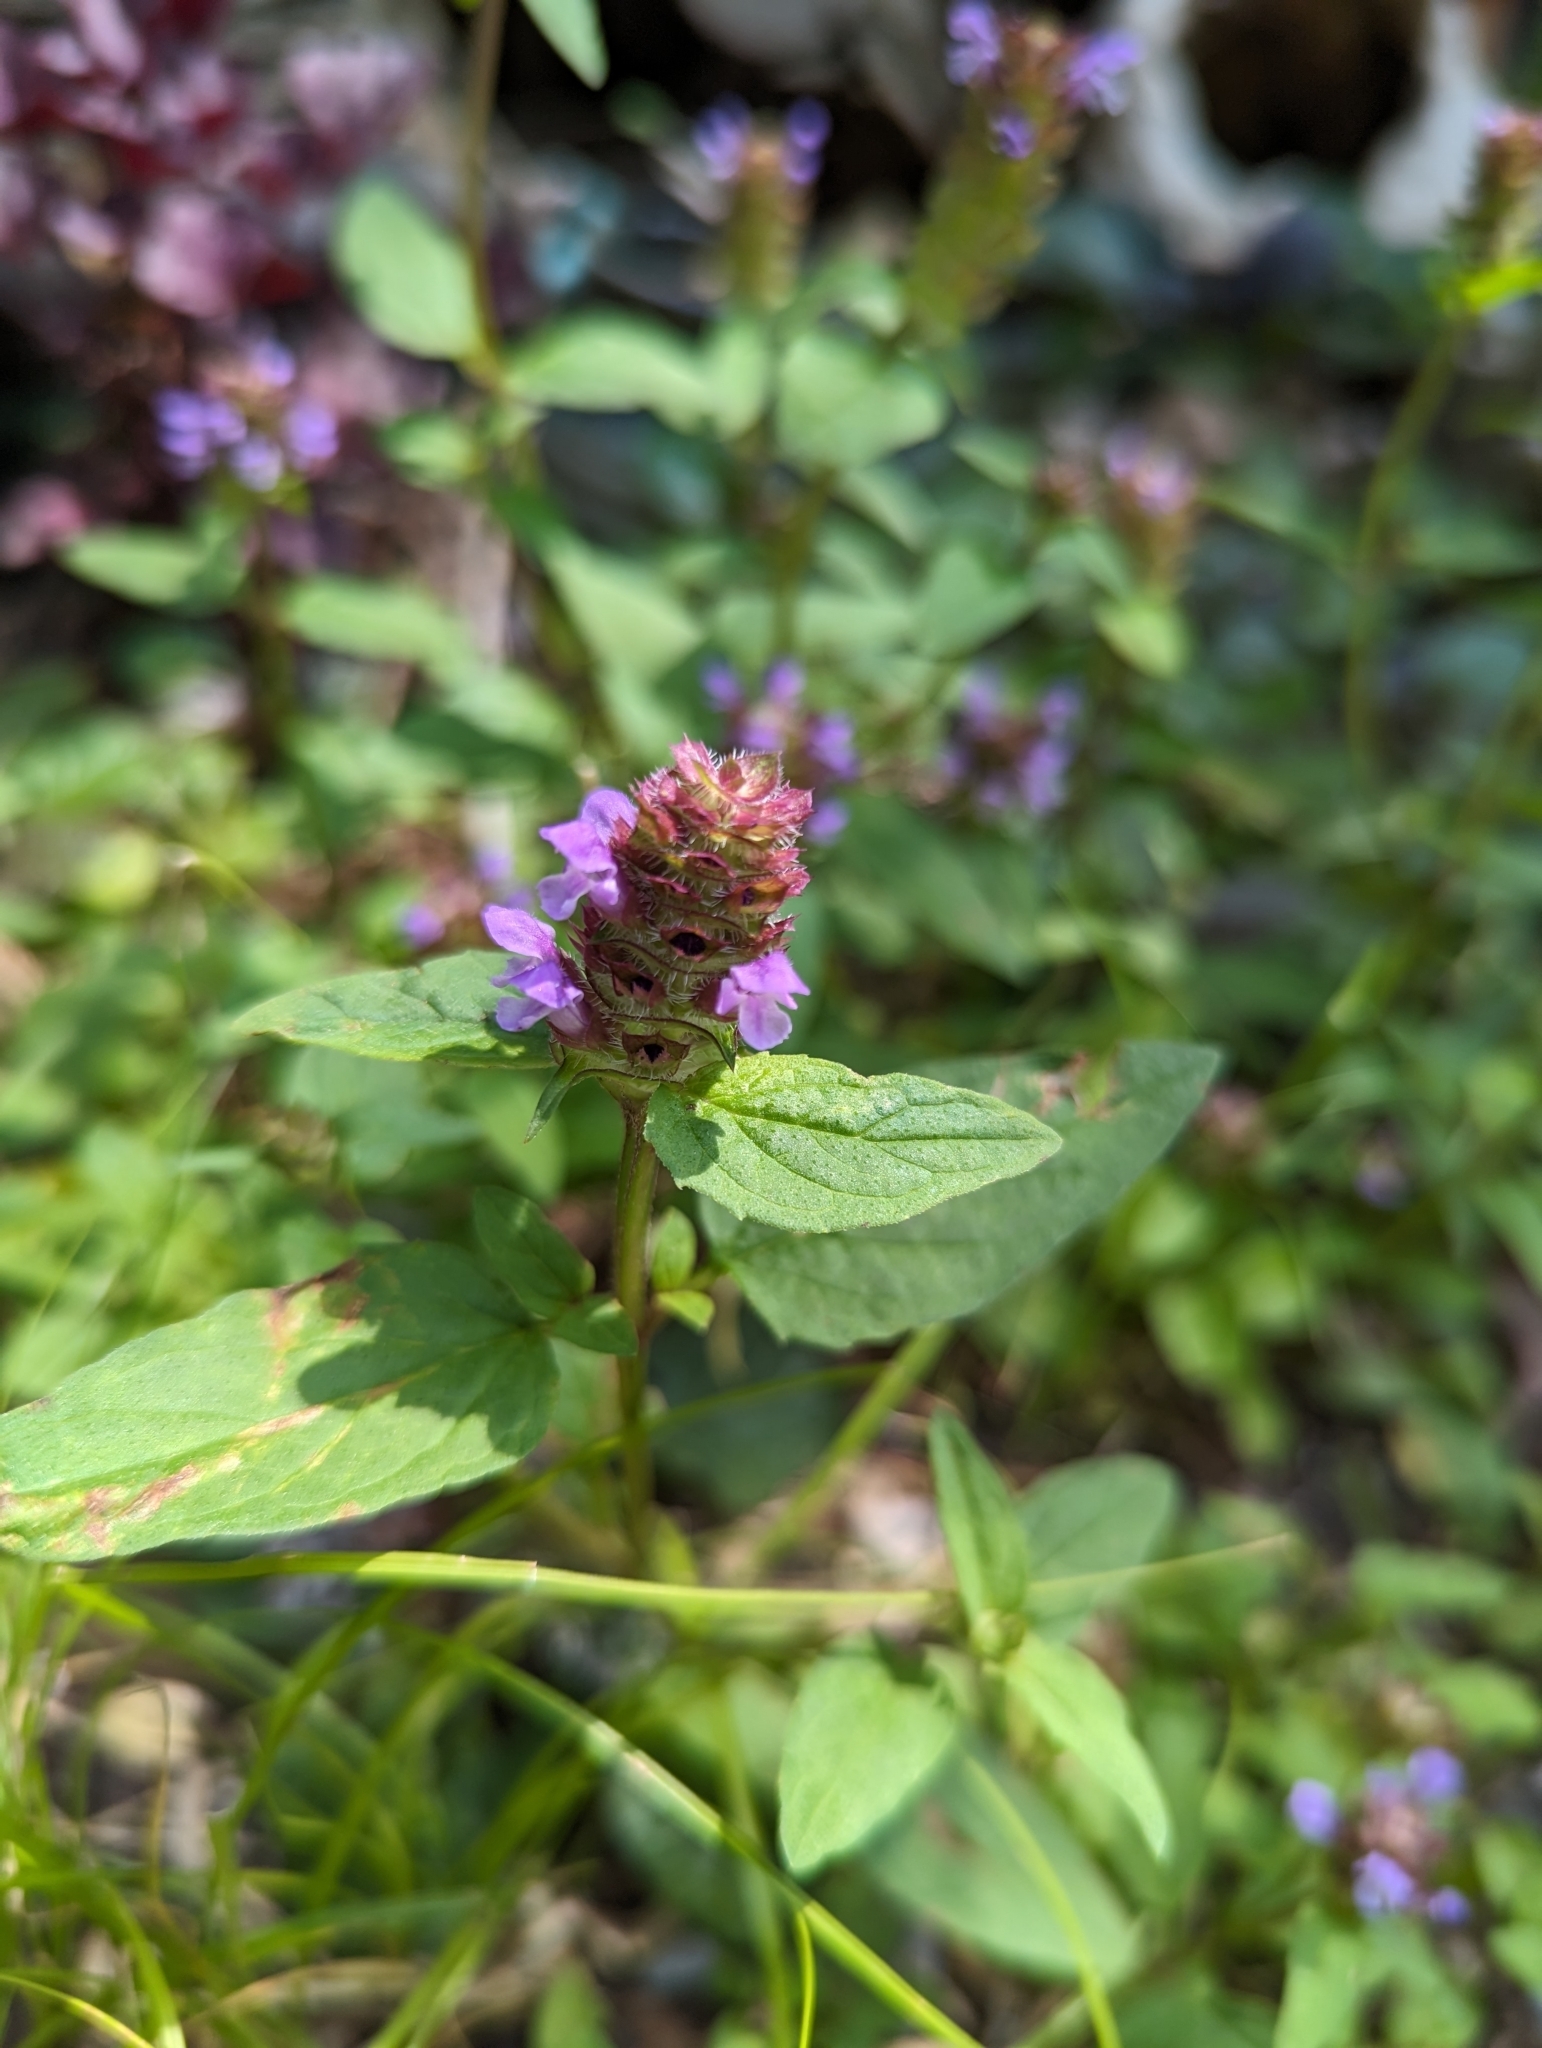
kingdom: Plantae
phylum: Tracheophyta
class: Magnoliopsida
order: Lamiales
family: Lamiaceae
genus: Prunella
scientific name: Prunella vulgaris
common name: Heal-all
